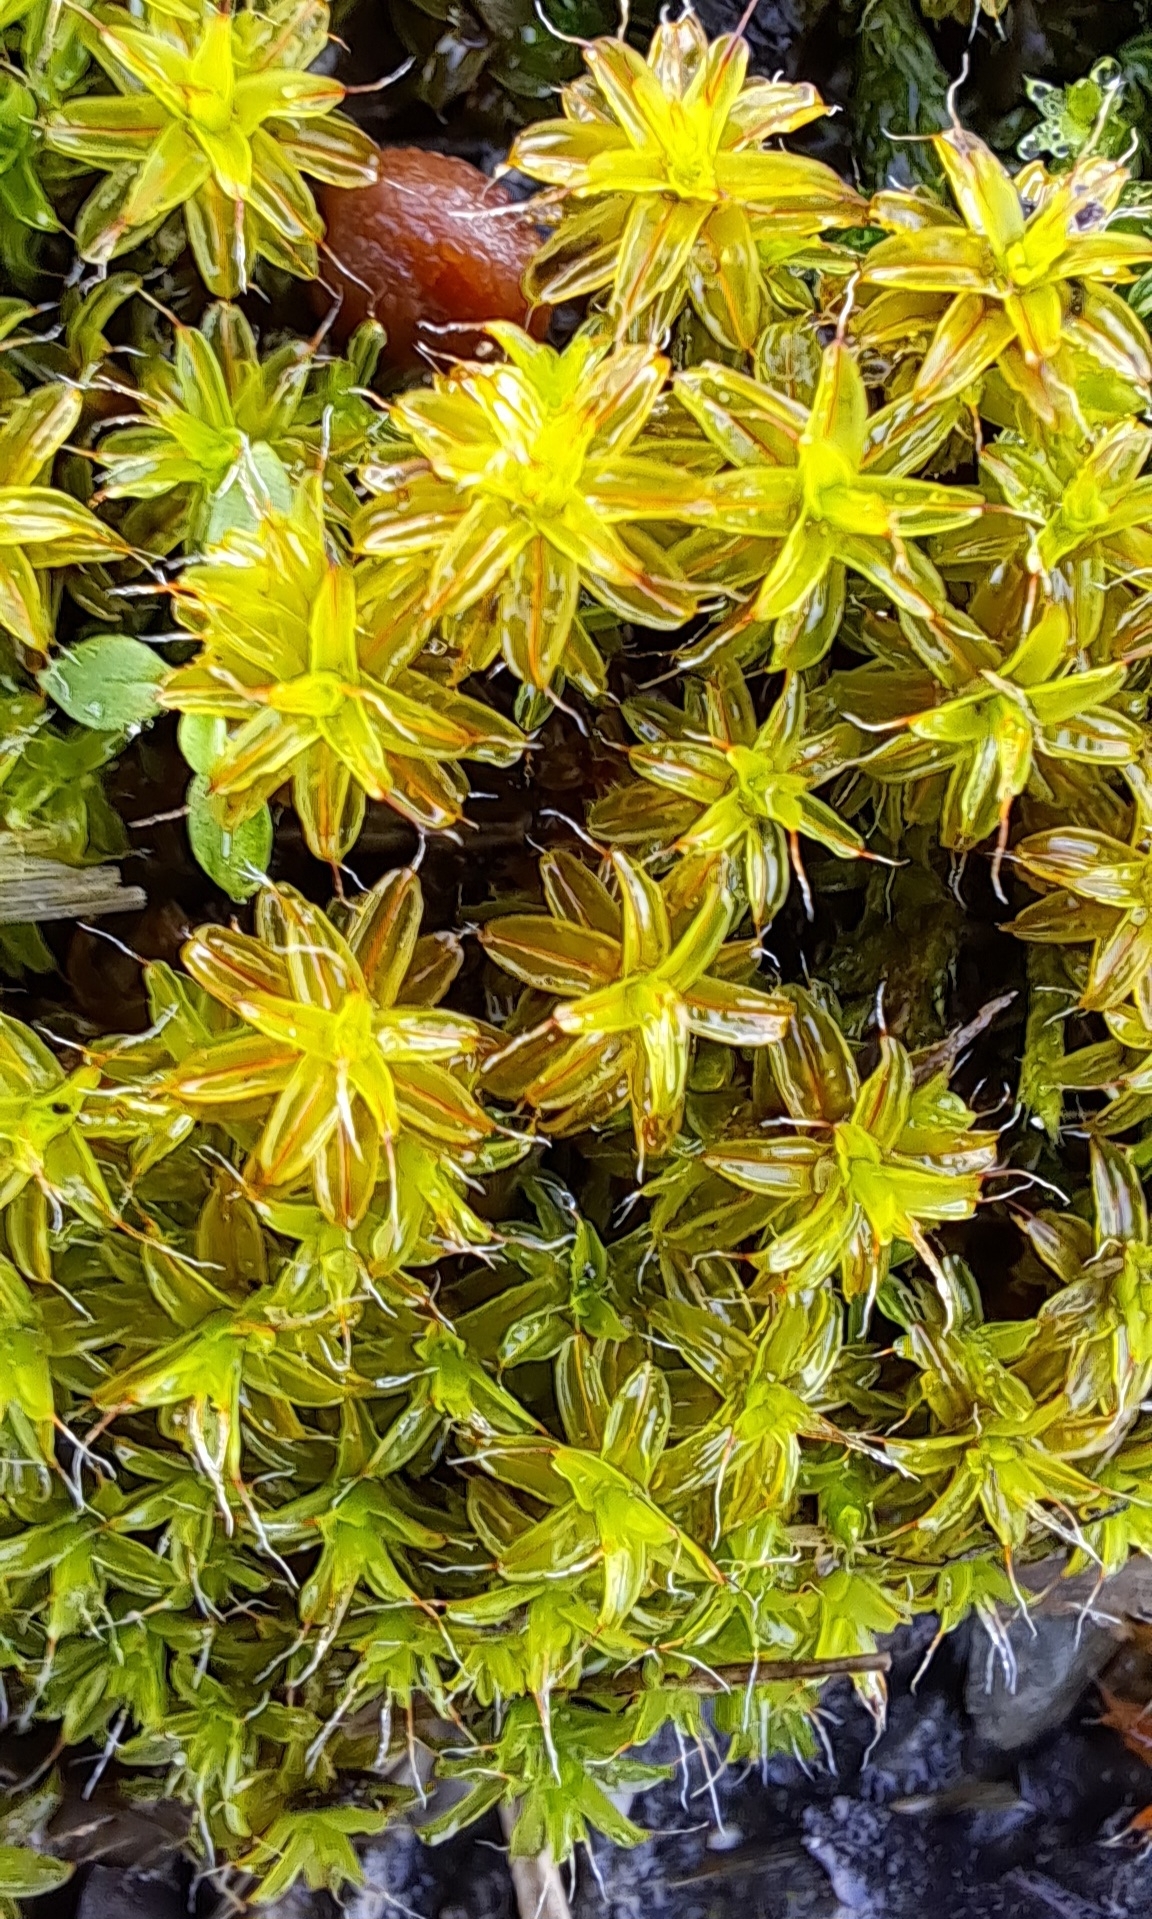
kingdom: Plantae
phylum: Bryophyta
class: Bryopsida
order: Pottiales
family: Pottiaceae
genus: Syntrichia
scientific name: Syntrichia ruralis
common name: Sidewalk screw moss
